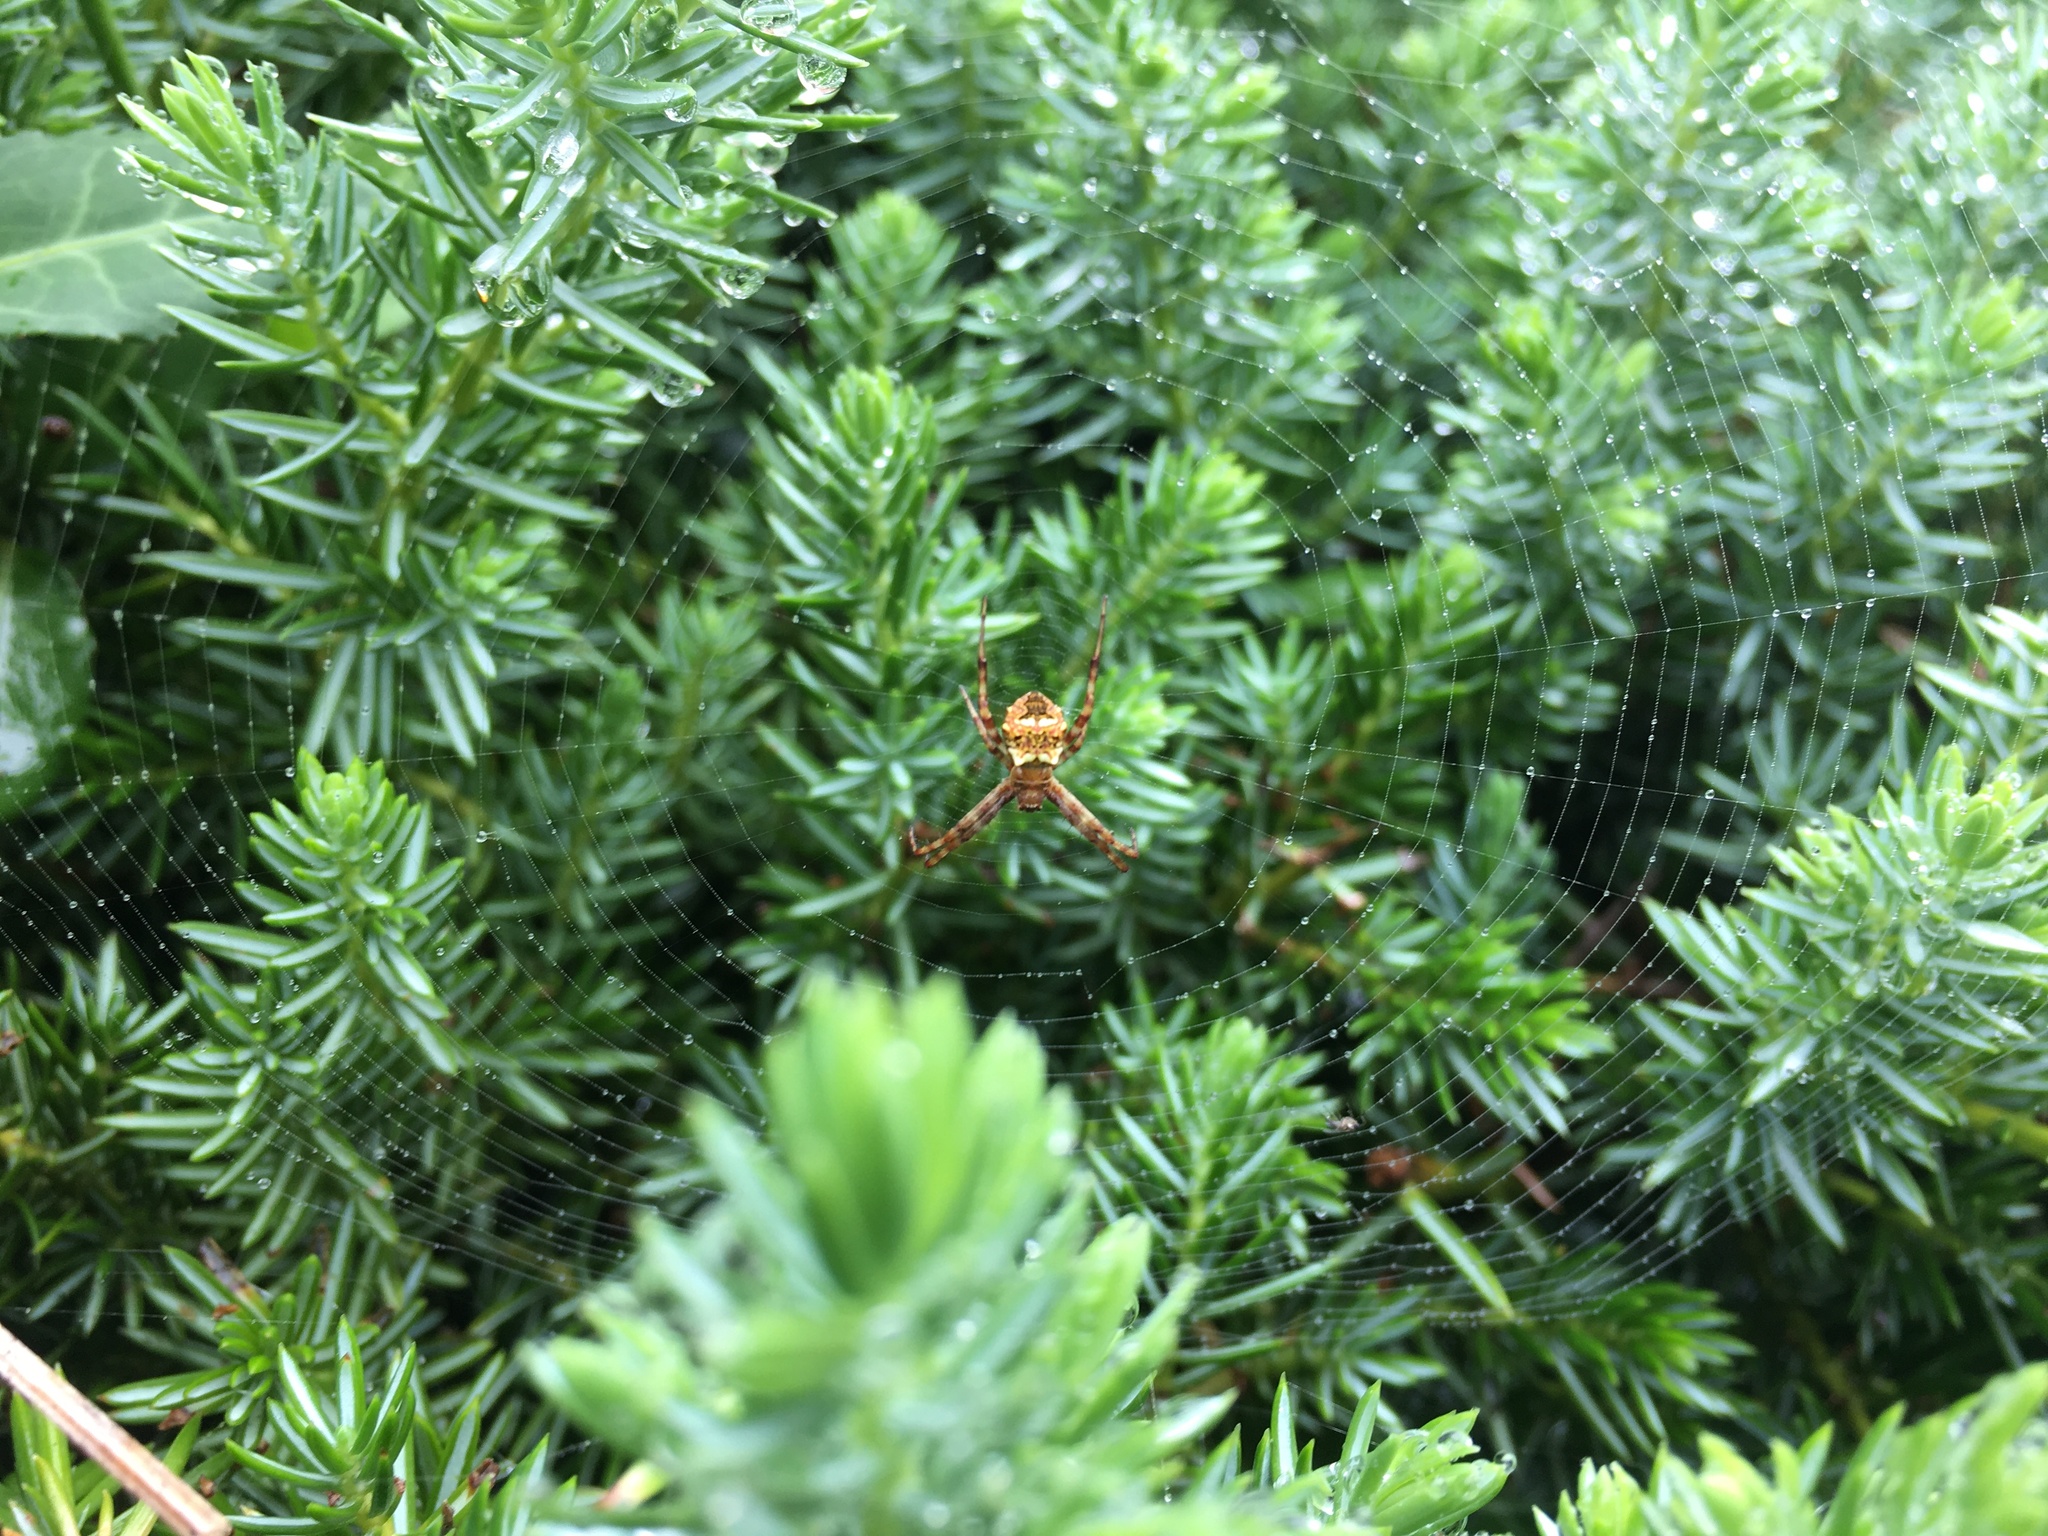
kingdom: Animalia
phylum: Arthropoda
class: Arachnida
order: Araneae
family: Araneidae
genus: Gea
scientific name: Gea heptagon
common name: Orb weavers
